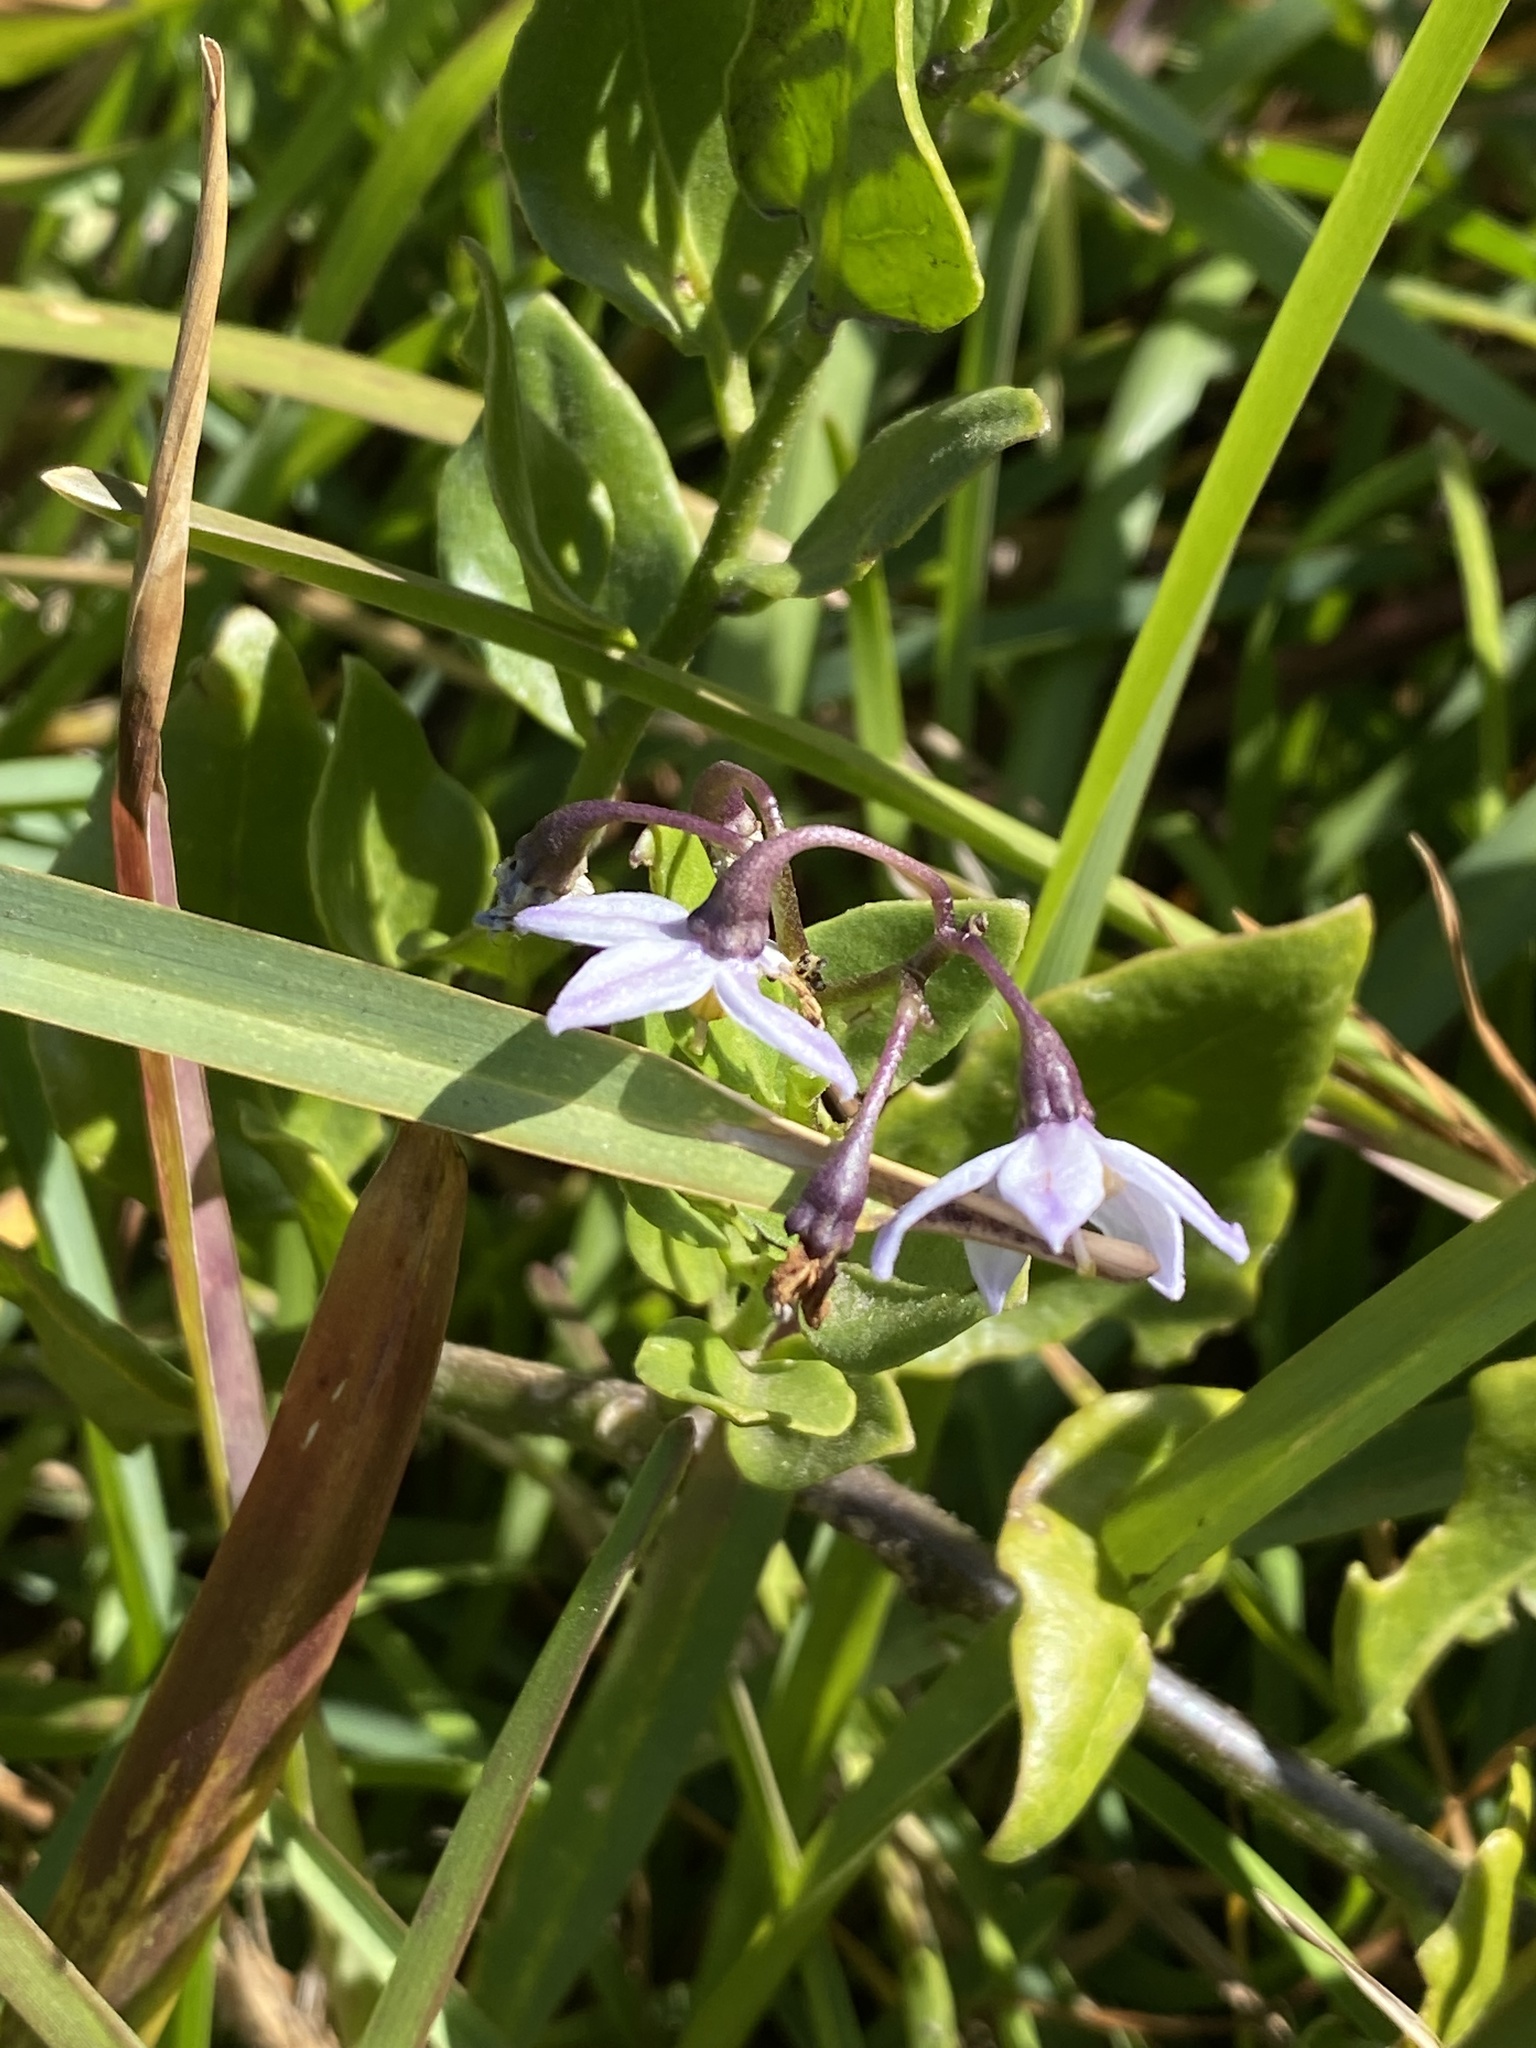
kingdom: Plantae
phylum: Tracheophyta
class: Magnoliopsida
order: Solanales
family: Solanaceae
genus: Solanum
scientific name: Solanum africanum
